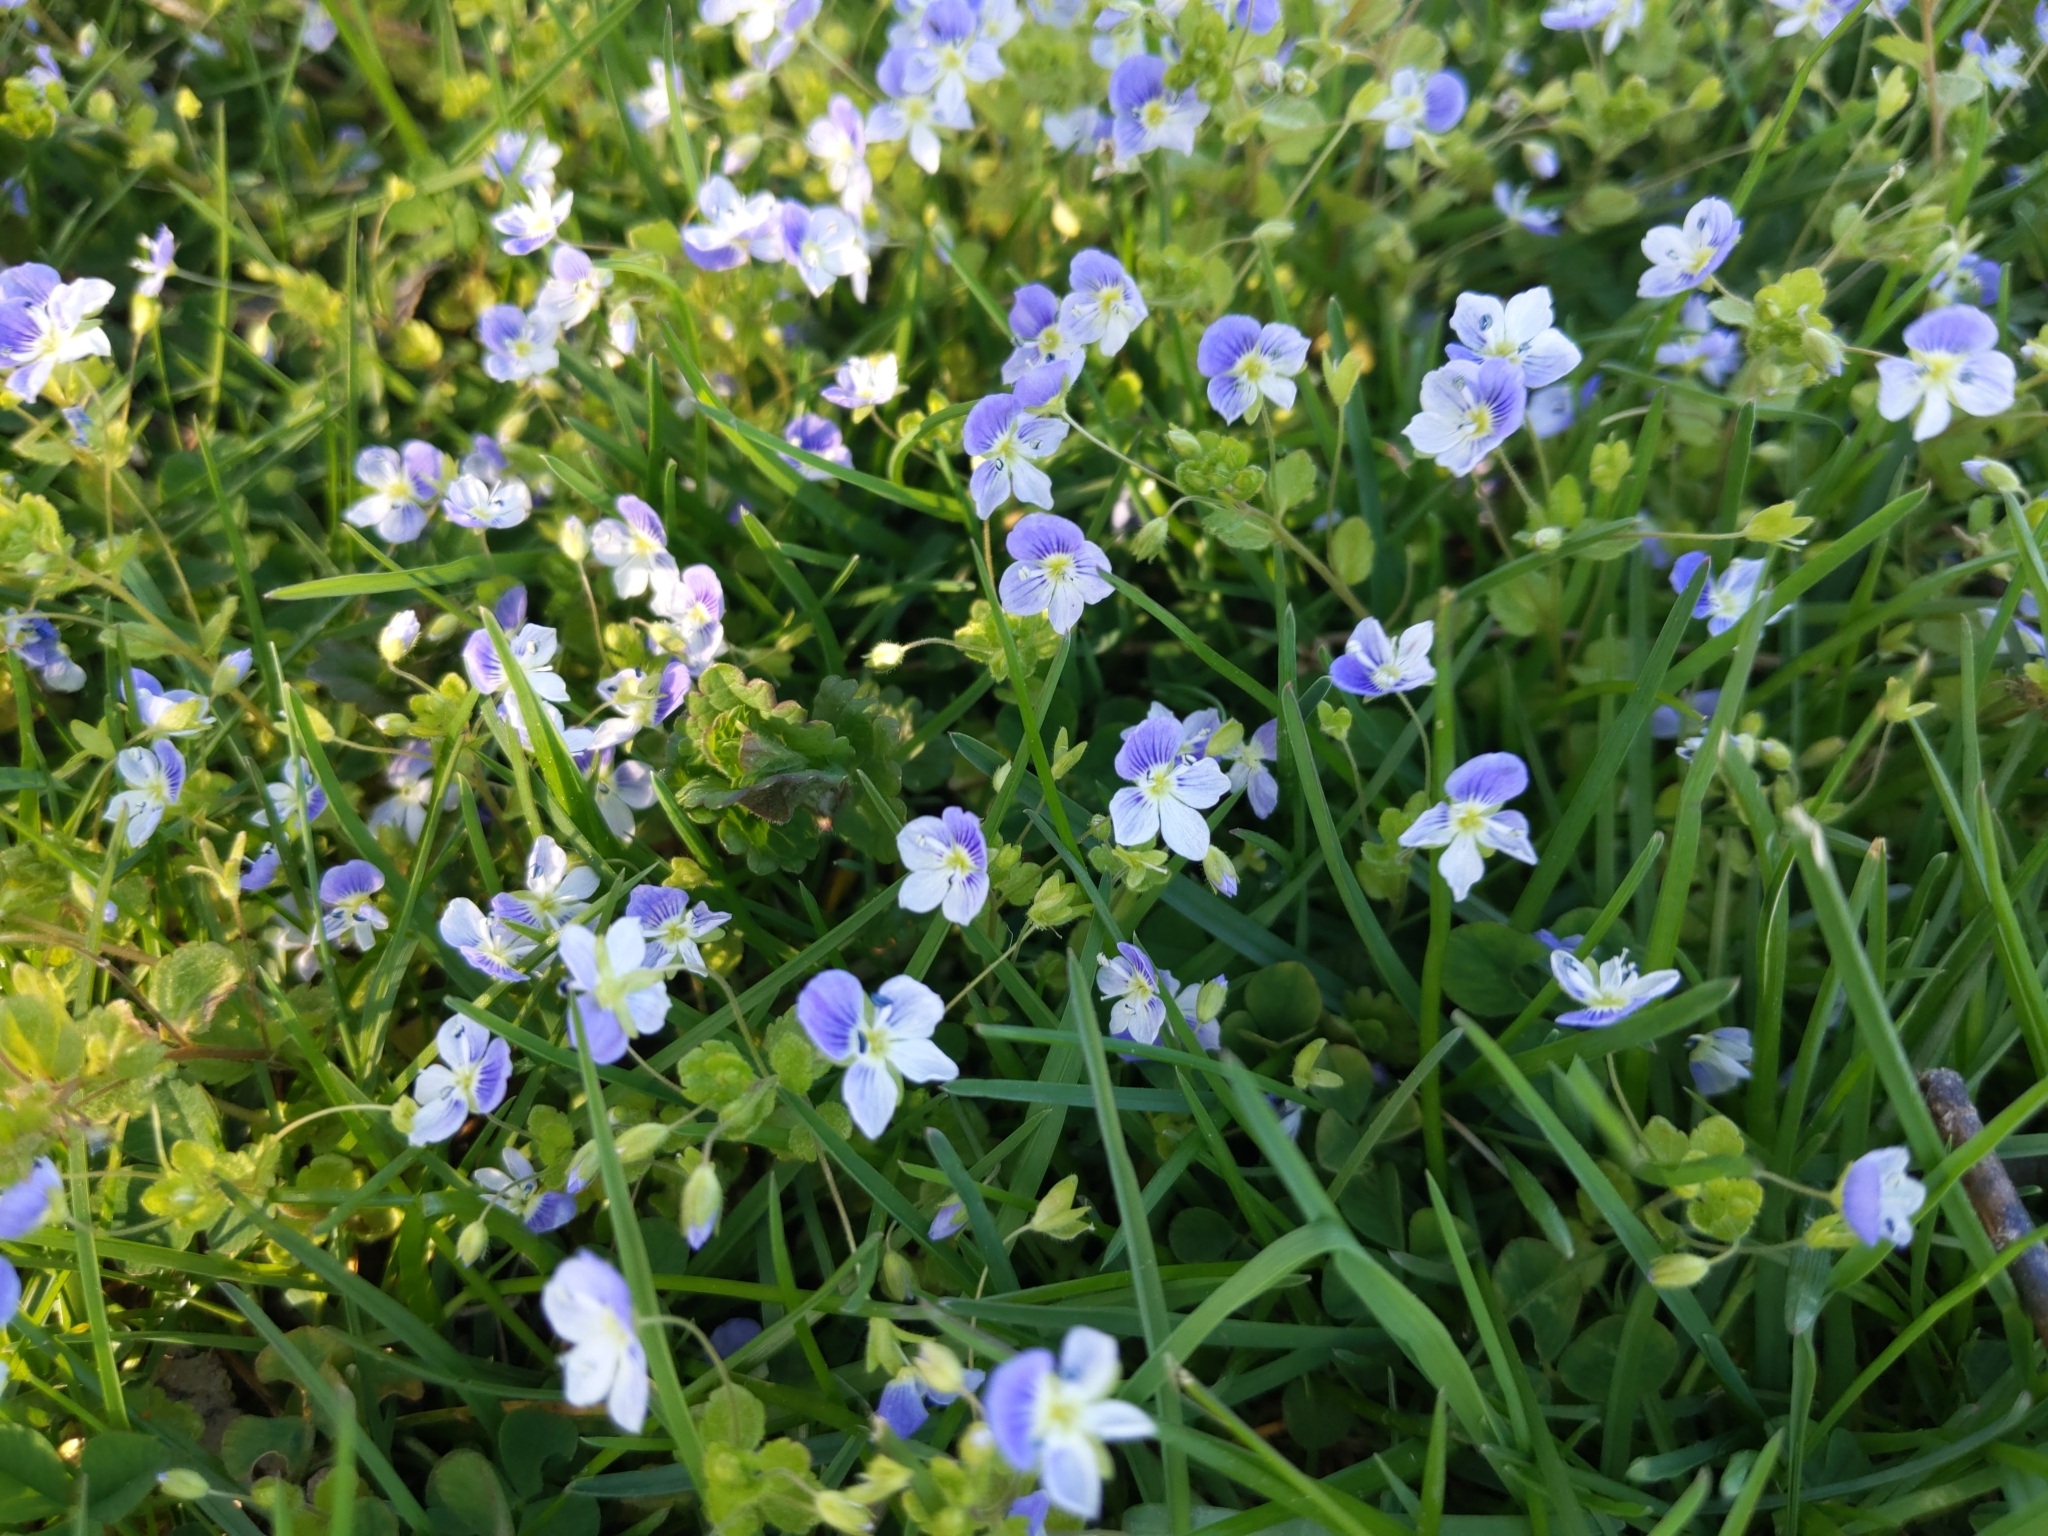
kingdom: Plantae
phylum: Tracheophyta
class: Magnoliopsida
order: Lamiales
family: Plantaginaceae
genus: Veronica
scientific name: Veronica filiformis
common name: Slender speedwell
